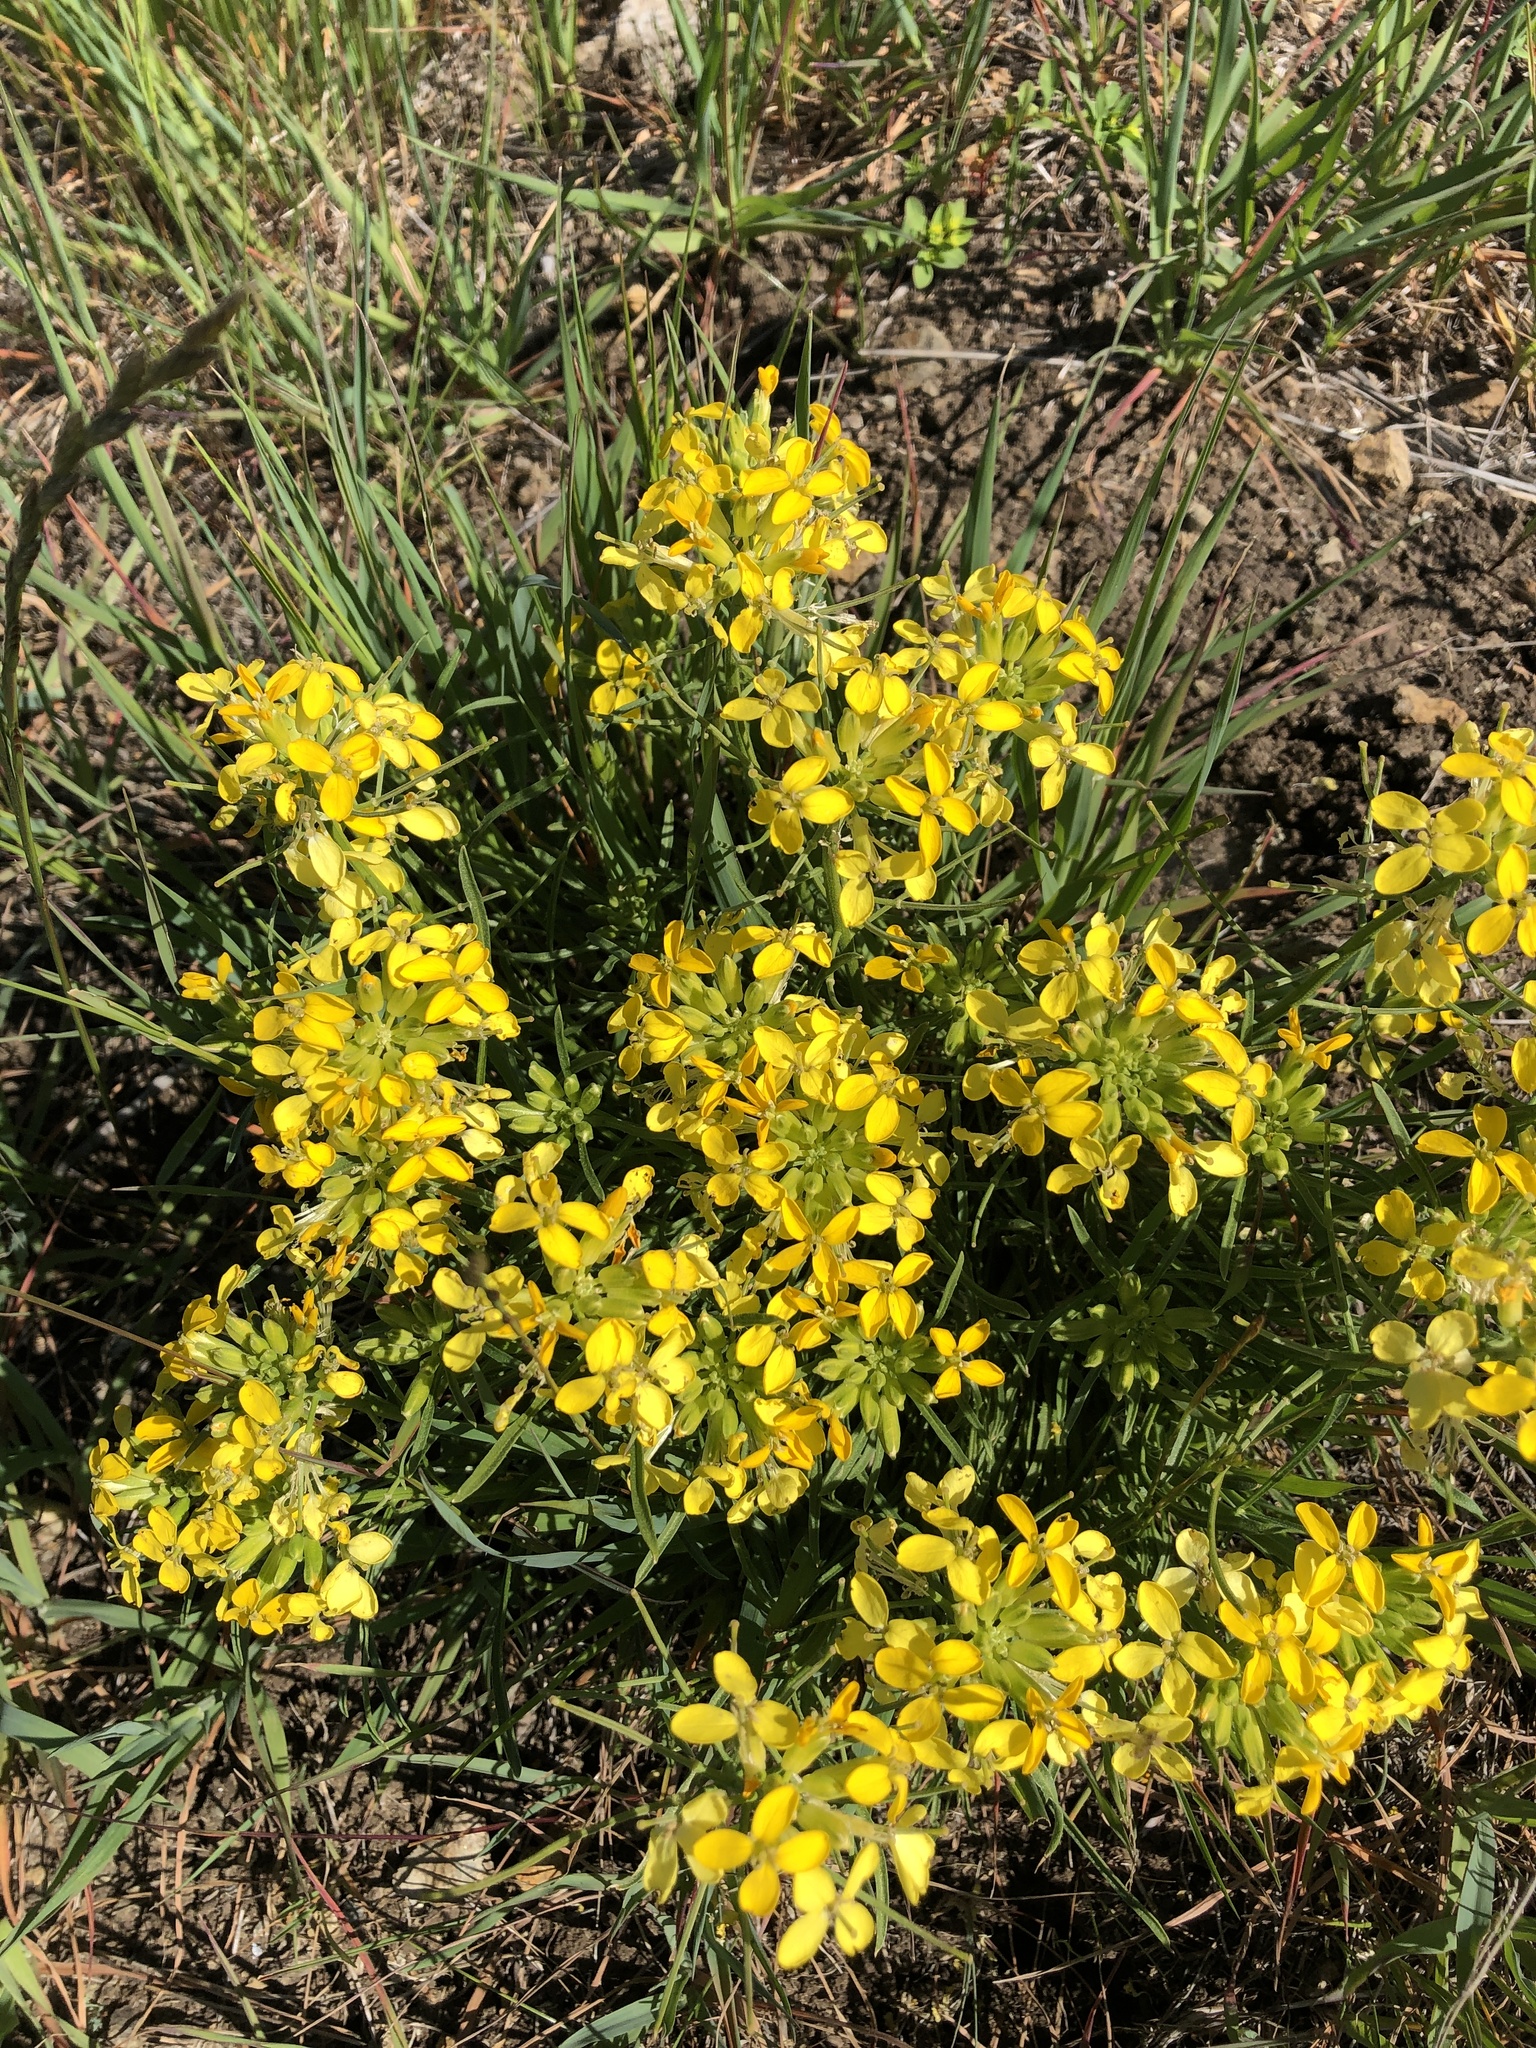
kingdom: Plantae
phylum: Tracheophyta
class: Magnoliopsida
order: Brassicales
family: Brassicaceae
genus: Erysimum
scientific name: Erysimum franciscanum
